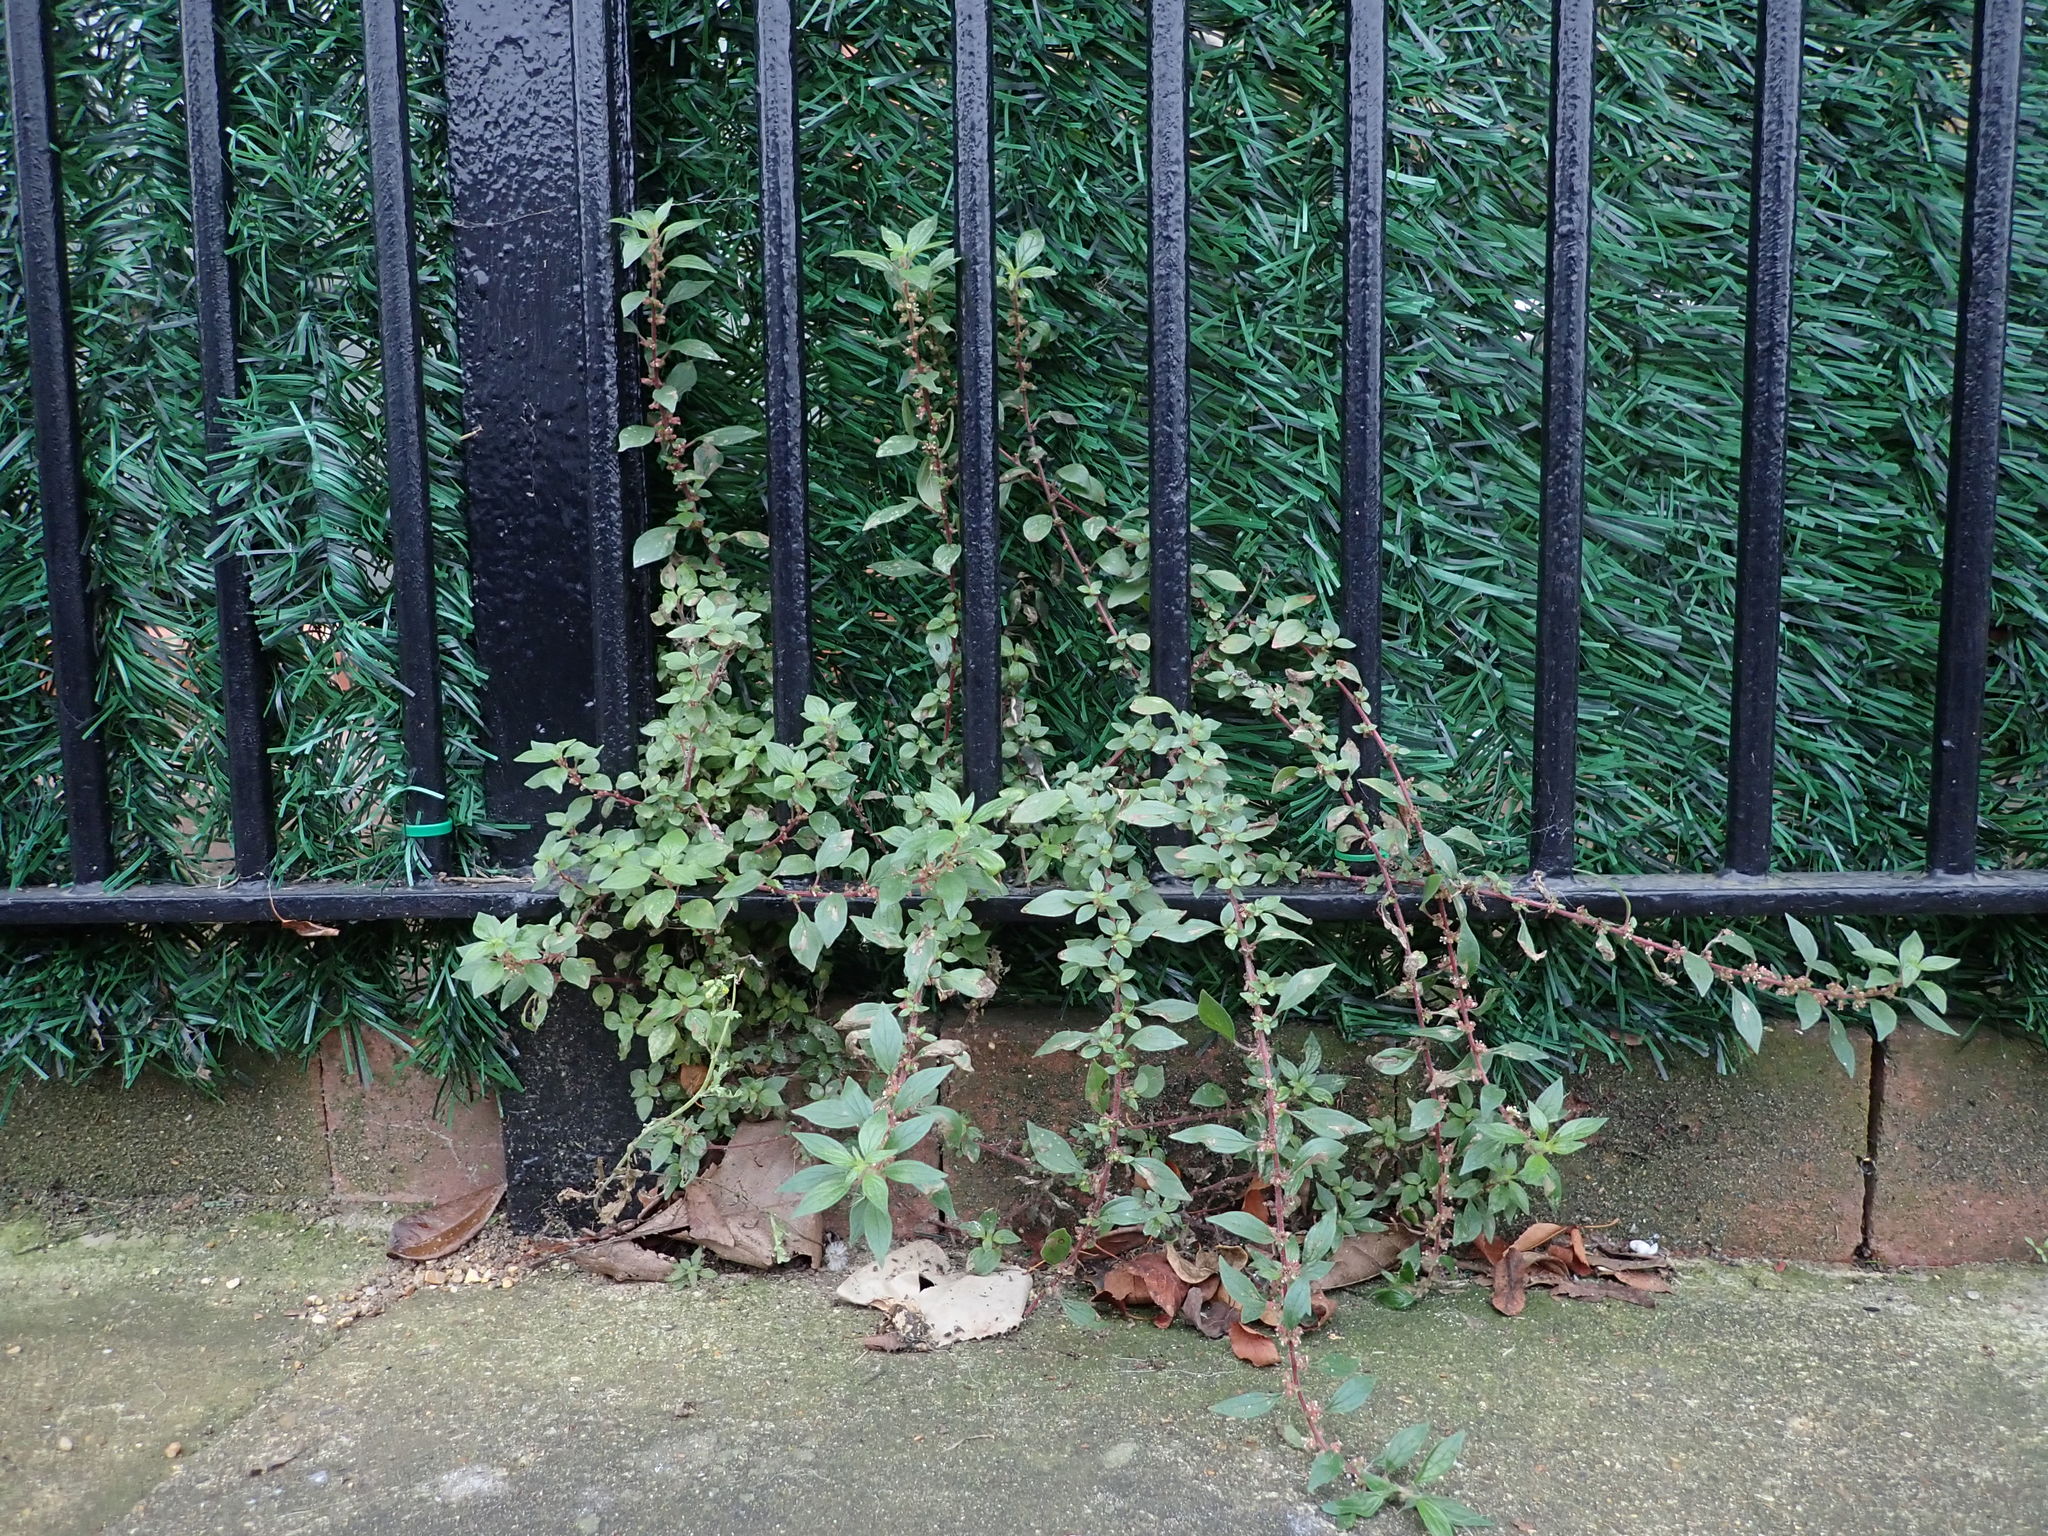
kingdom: Plantae
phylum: Tracheophyta
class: Magnoliopsida
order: Rosales
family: Urticaceae
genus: Parietaria
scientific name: Parietaria judaica
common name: Pellitory-of-the-wall
